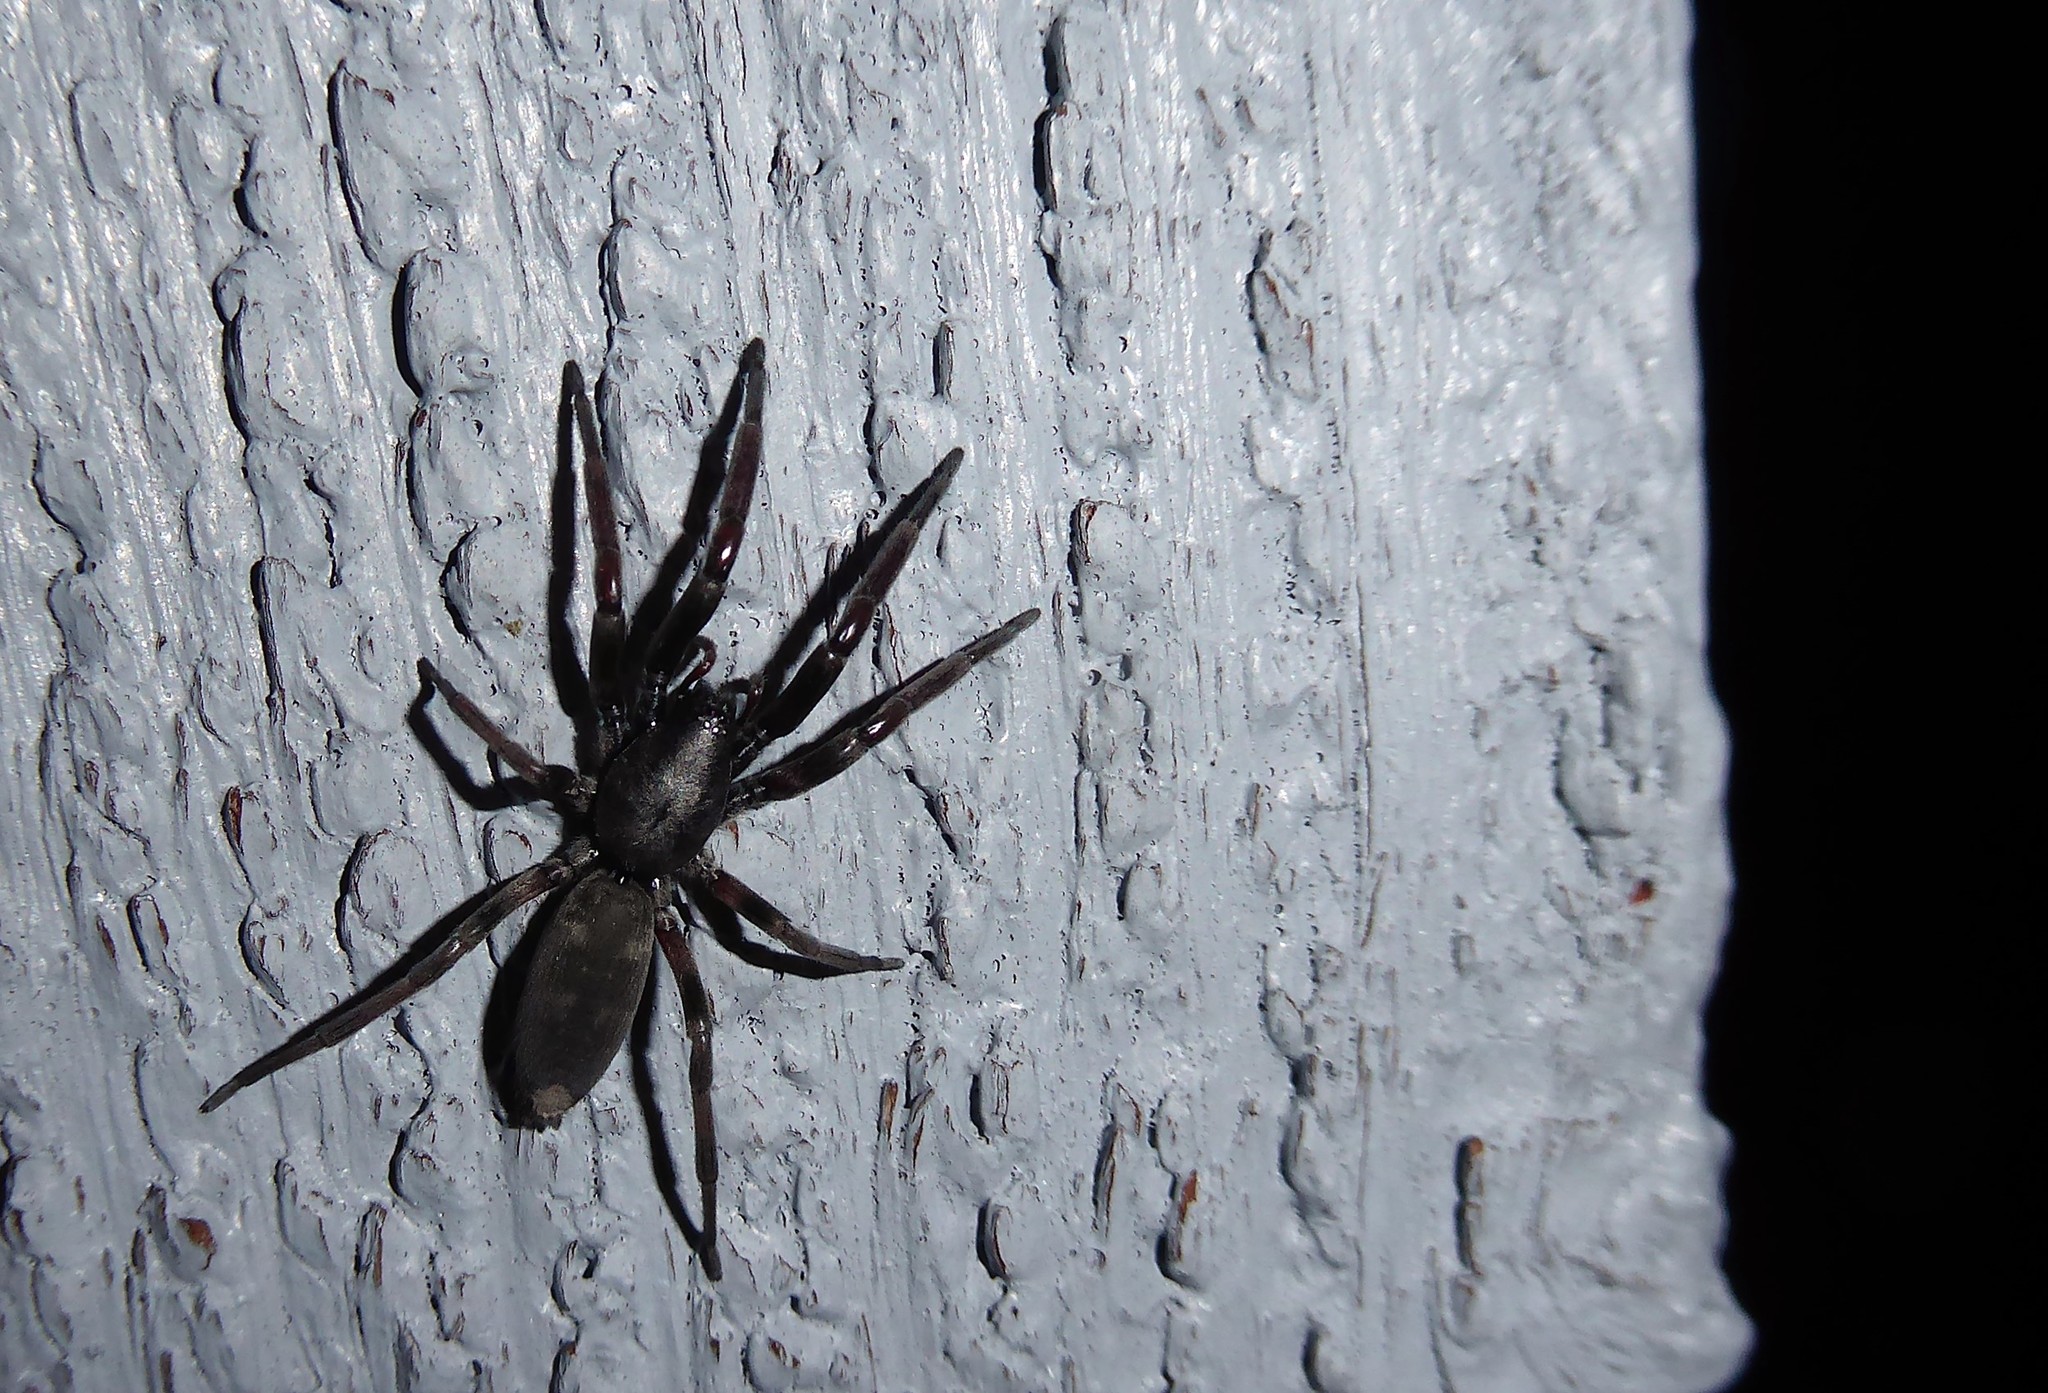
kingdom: Animalia
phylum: Arthropoda
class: Arachnida
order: Araneae
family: Lamponidae
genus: Lampona
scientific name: Lampona cylindrata
